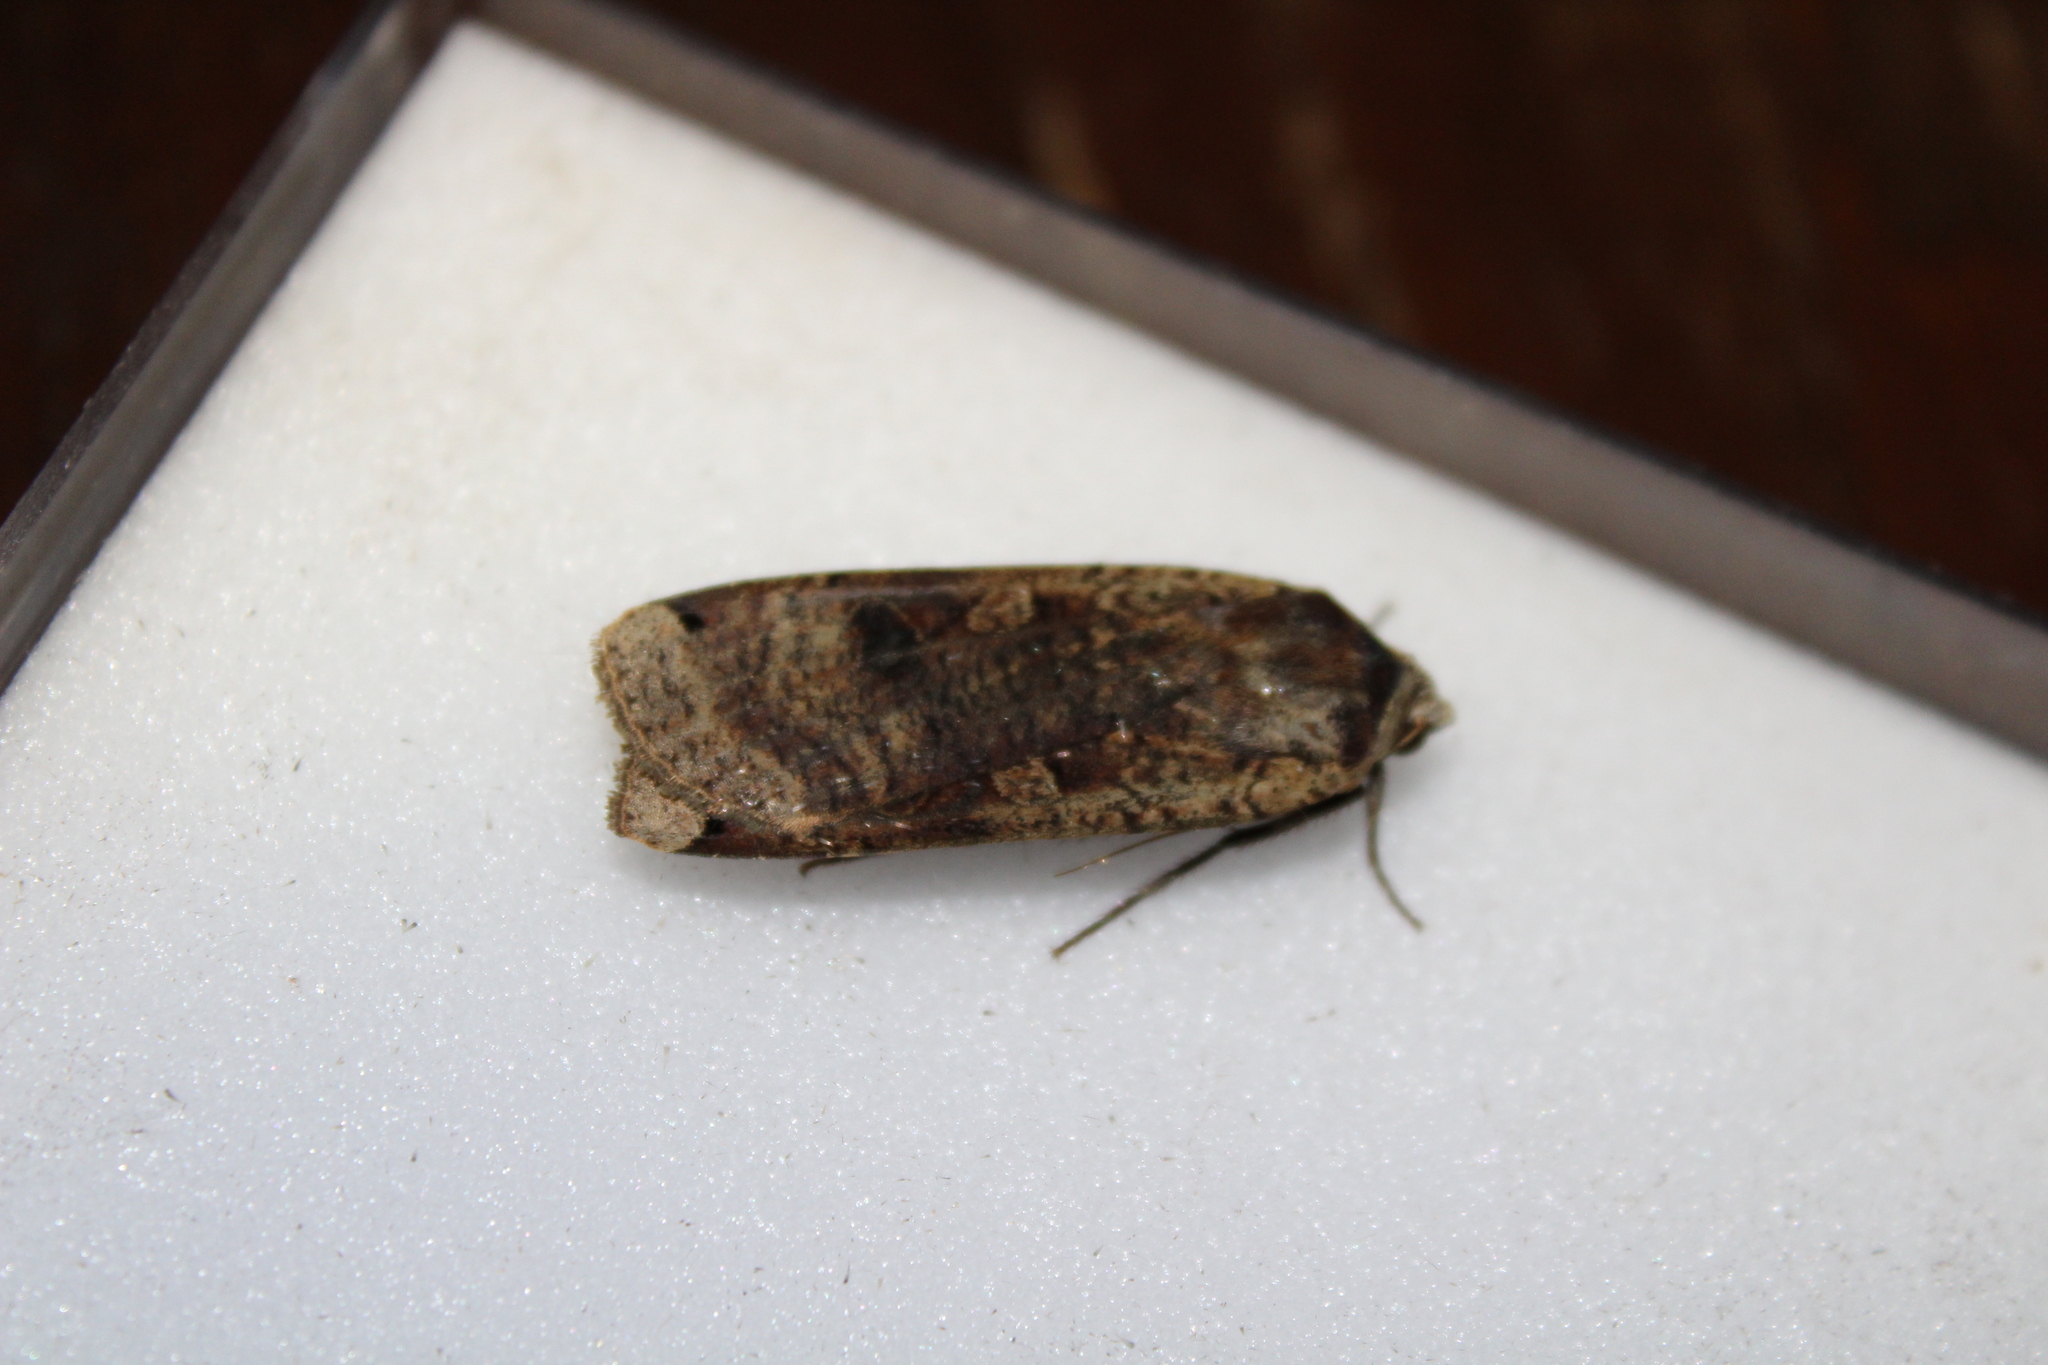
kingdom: Animalia
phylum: Arthropoda
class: Insecta
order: Lepidoptera
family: Noctuidae
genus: Noctua
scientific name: Noctua pronuba
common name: Large yellow underwing
